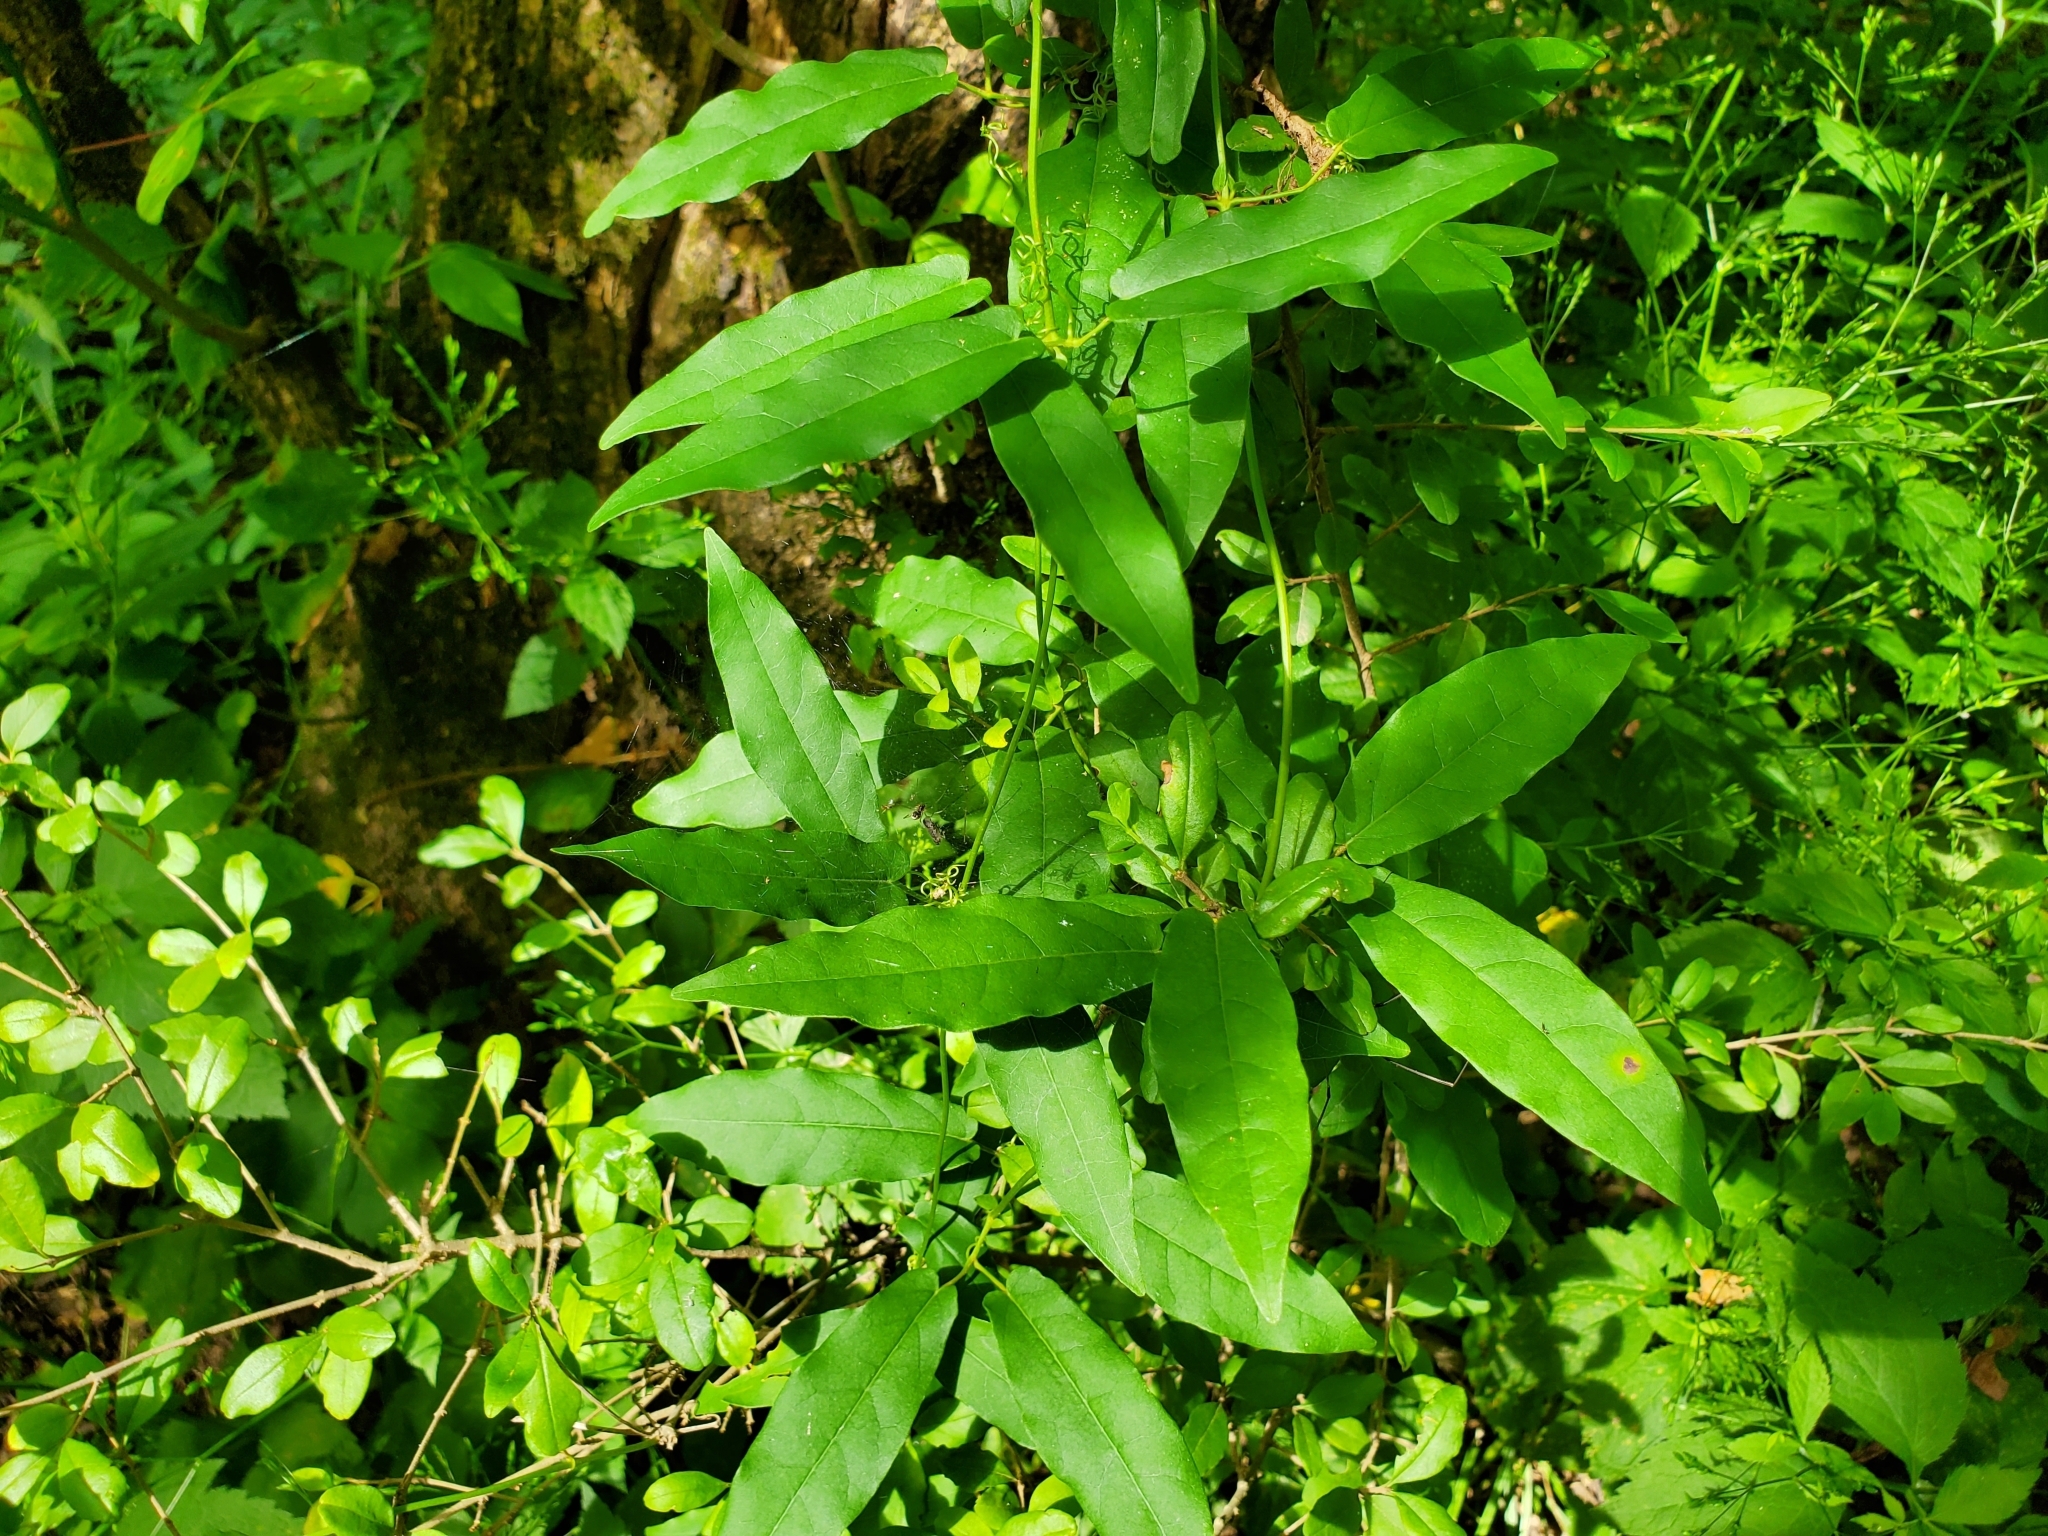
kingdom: Plantae
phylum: Tracheophyta
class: Magnoliopsida
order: Lamiales
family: Bignoniaceae
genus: Bignonia
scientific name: Bignonia capreolata
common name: Crossvine
